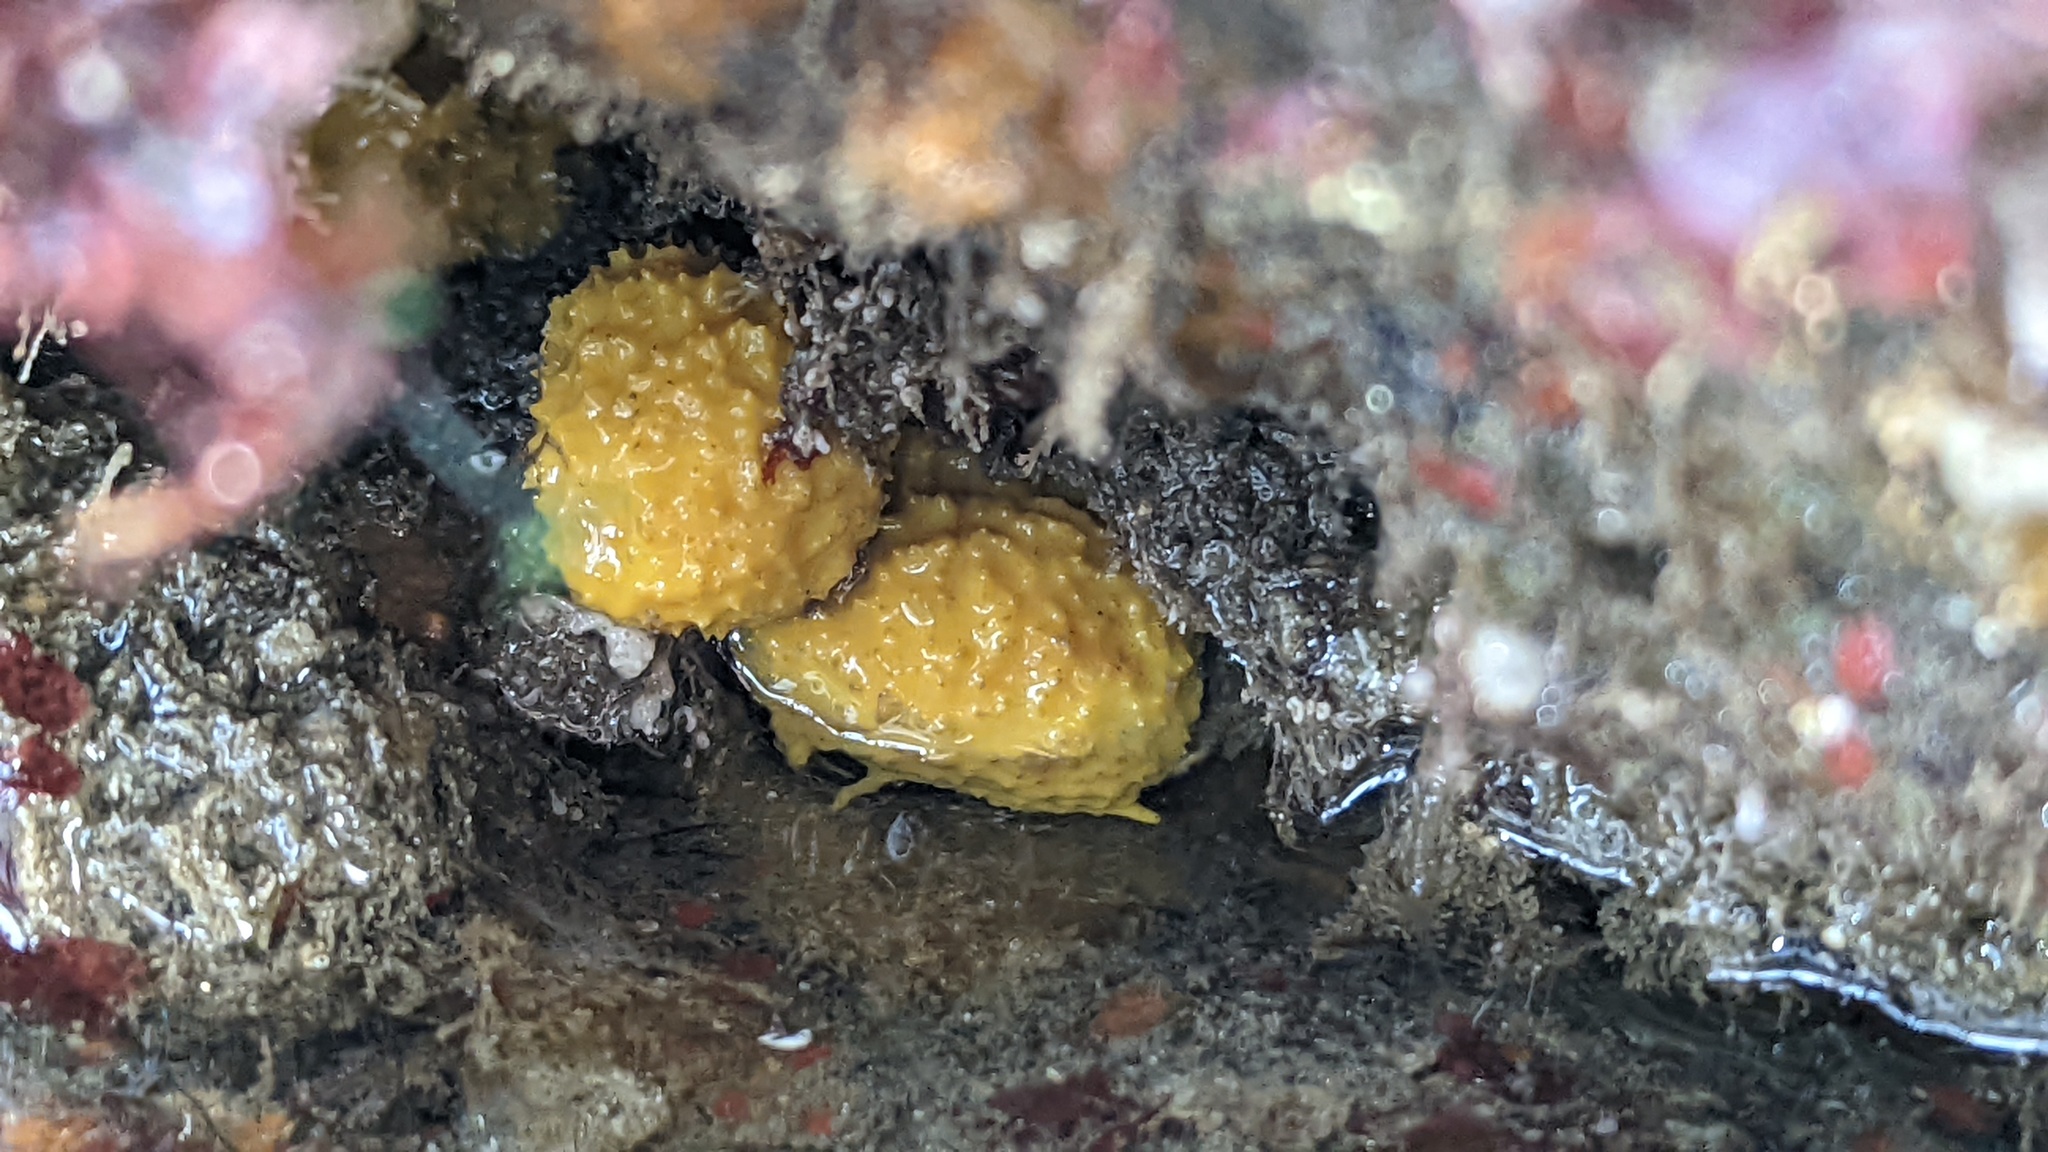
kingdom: Animalia
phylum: Porifera
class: Demospongiae
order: Verongiida
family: Aplysinidae
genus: Aiolochroia
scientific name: Aiolochroia thiona
